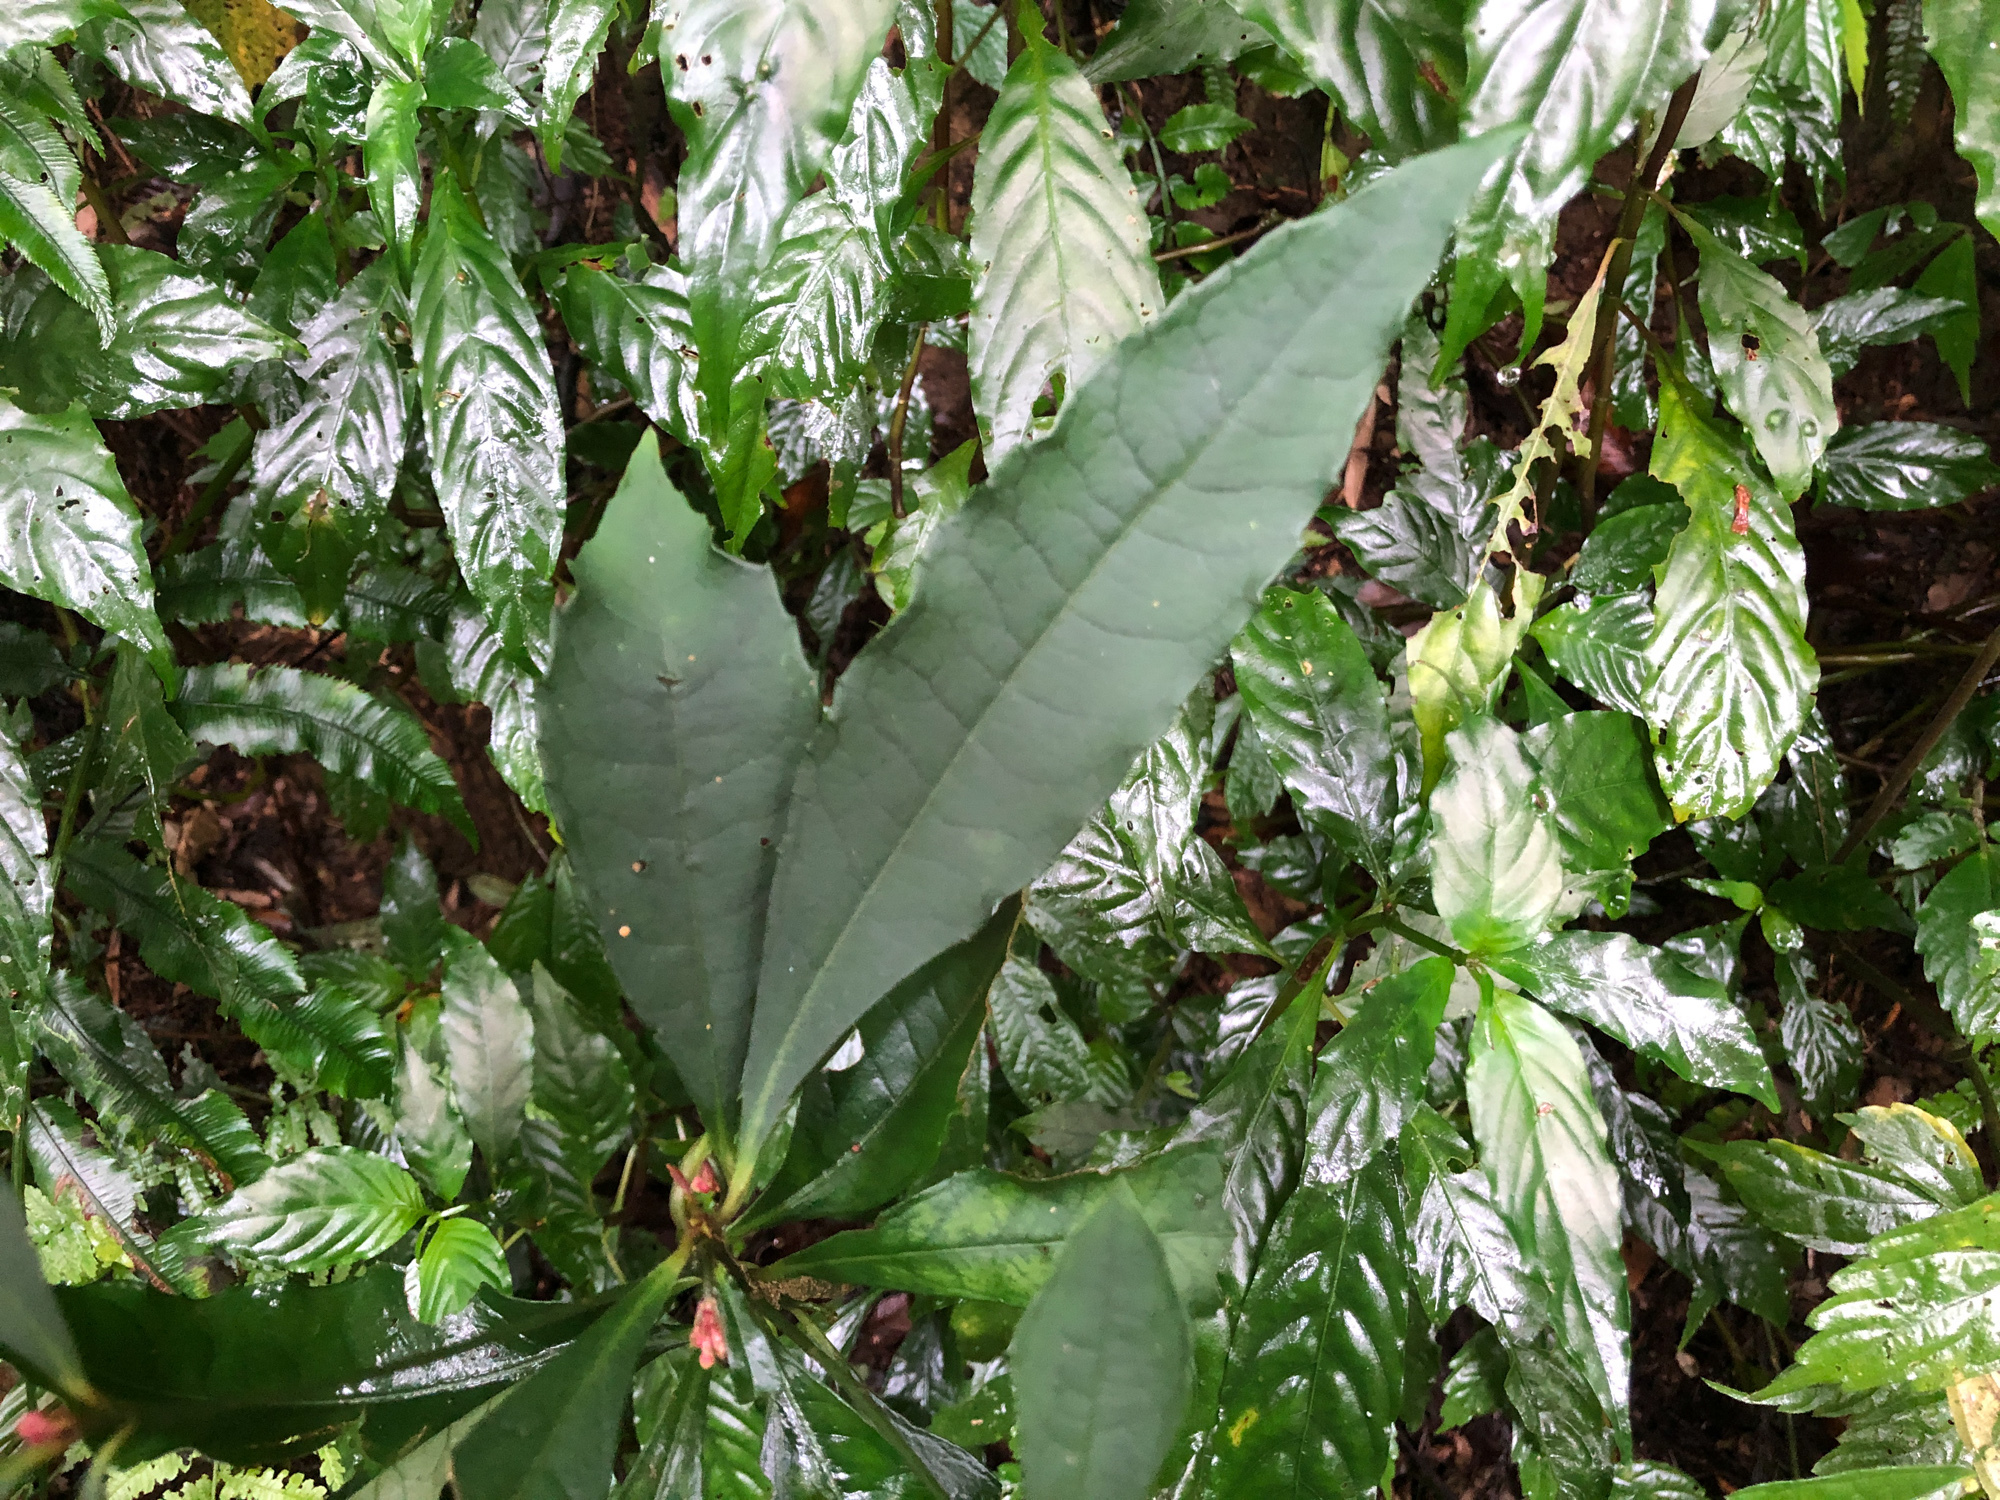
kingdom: Plantae
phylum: Tracheophyta
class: Magnoliopsida
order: Ericales
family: Primulaceae
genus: Ardisia
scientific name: Ardisia cornudentata
